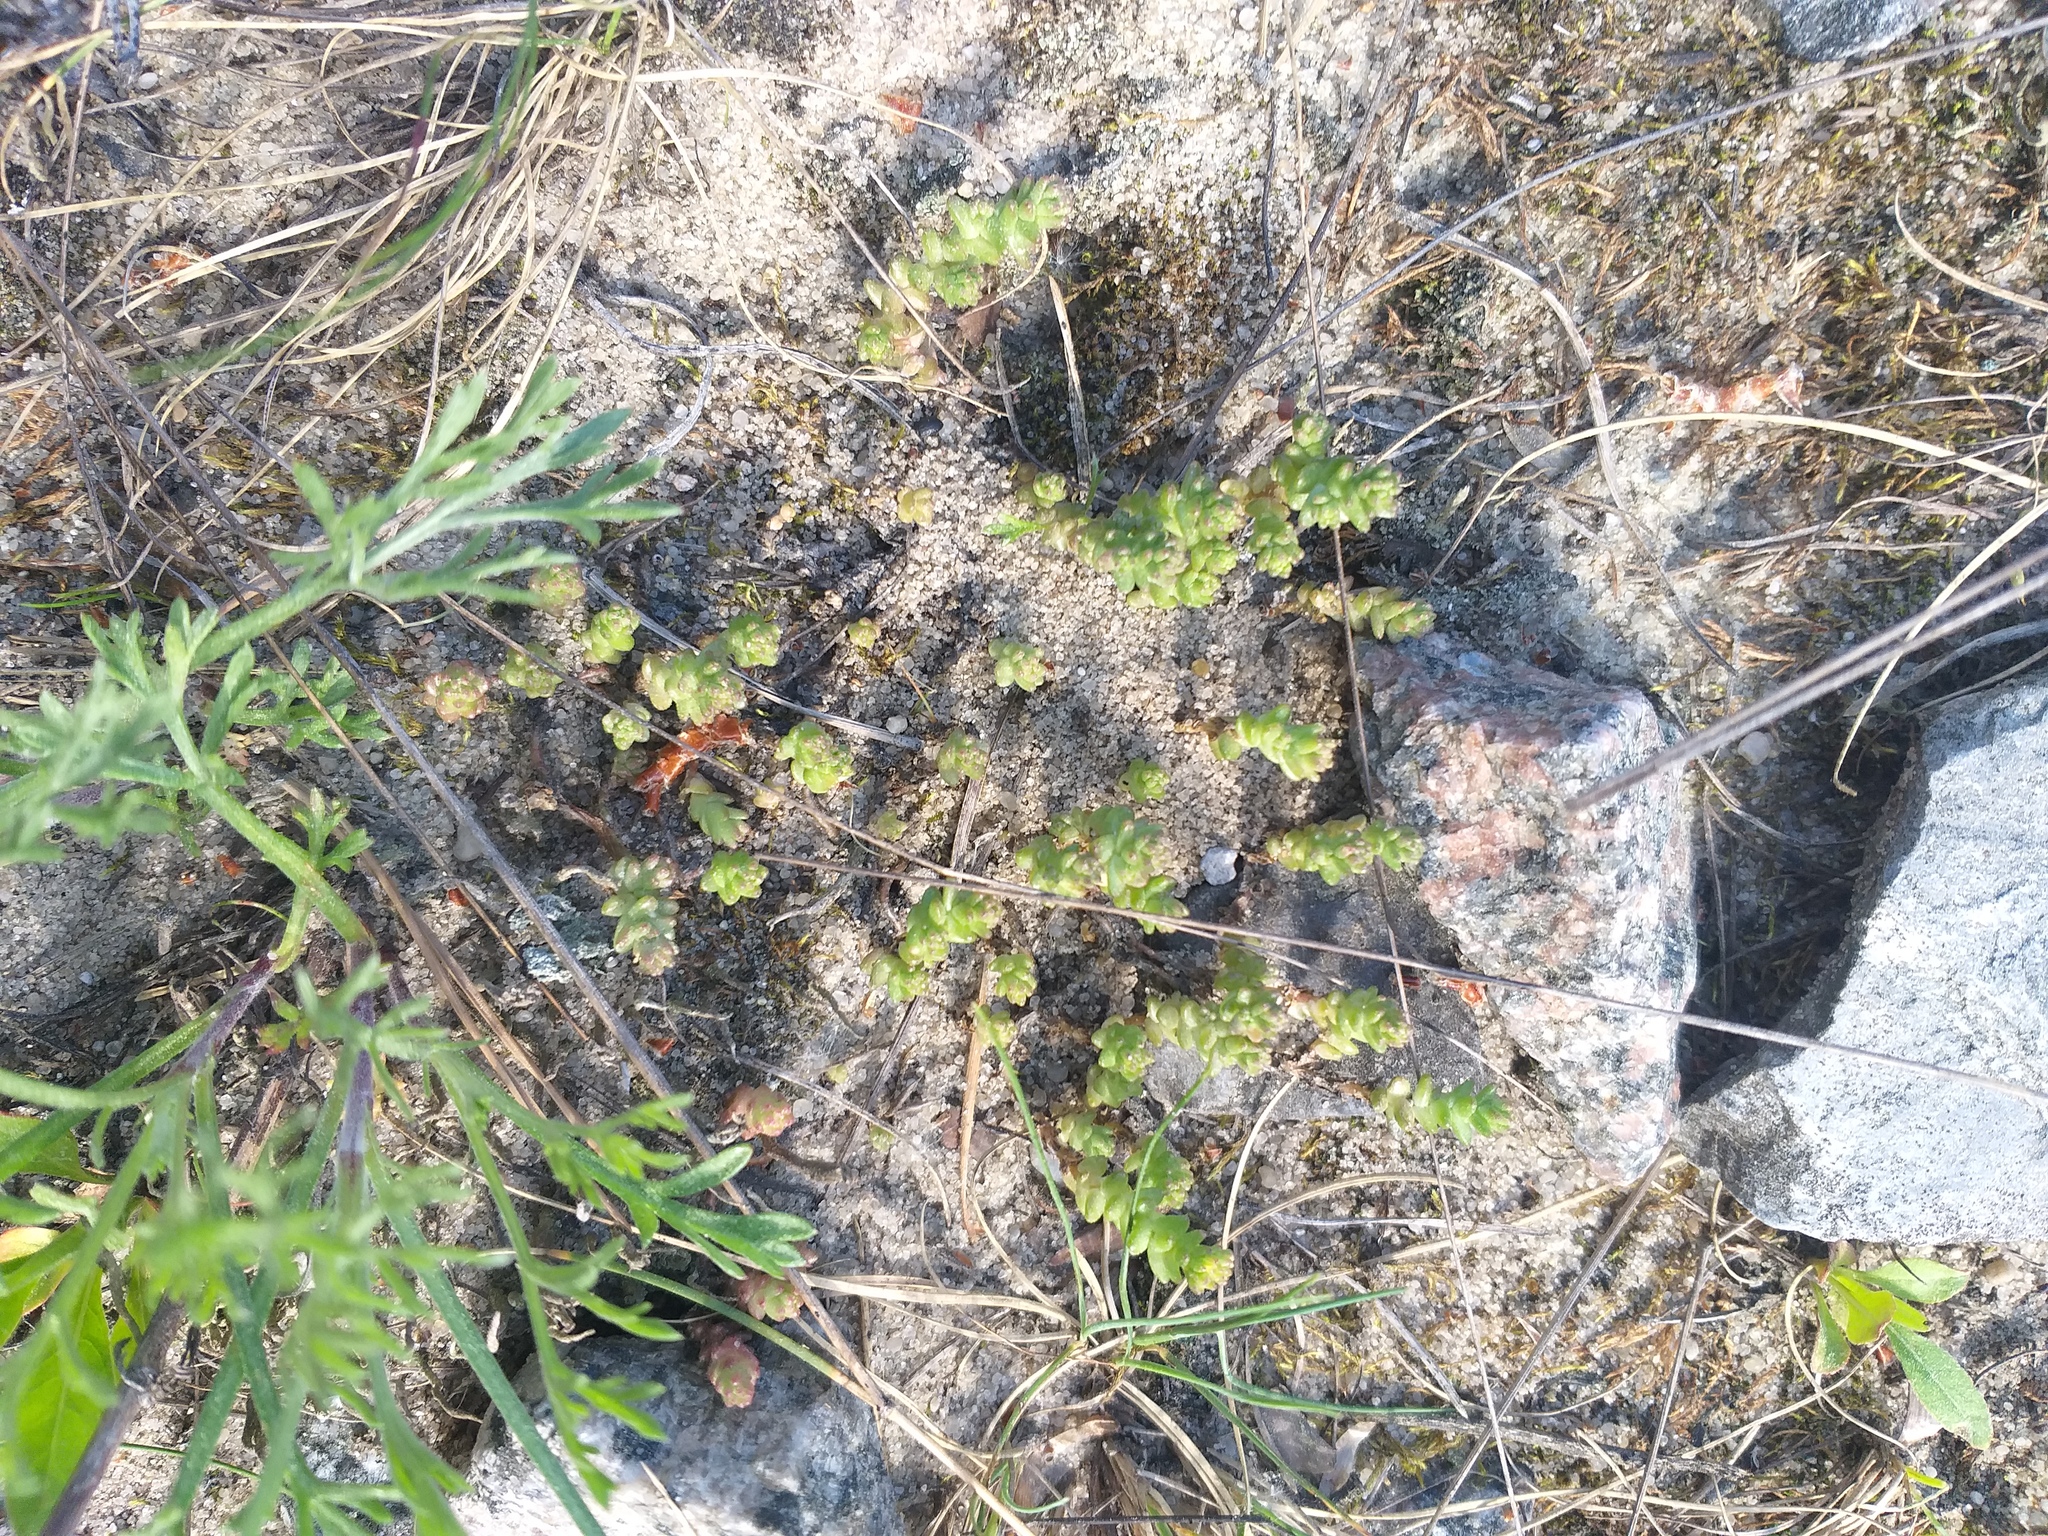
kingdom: Plantae
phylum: Tracheophyta
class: Magnoliopsida
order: Saxifragales
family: Crassulaceae
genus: Sedum
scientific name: Sedum acre
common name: Biting stonecrop
